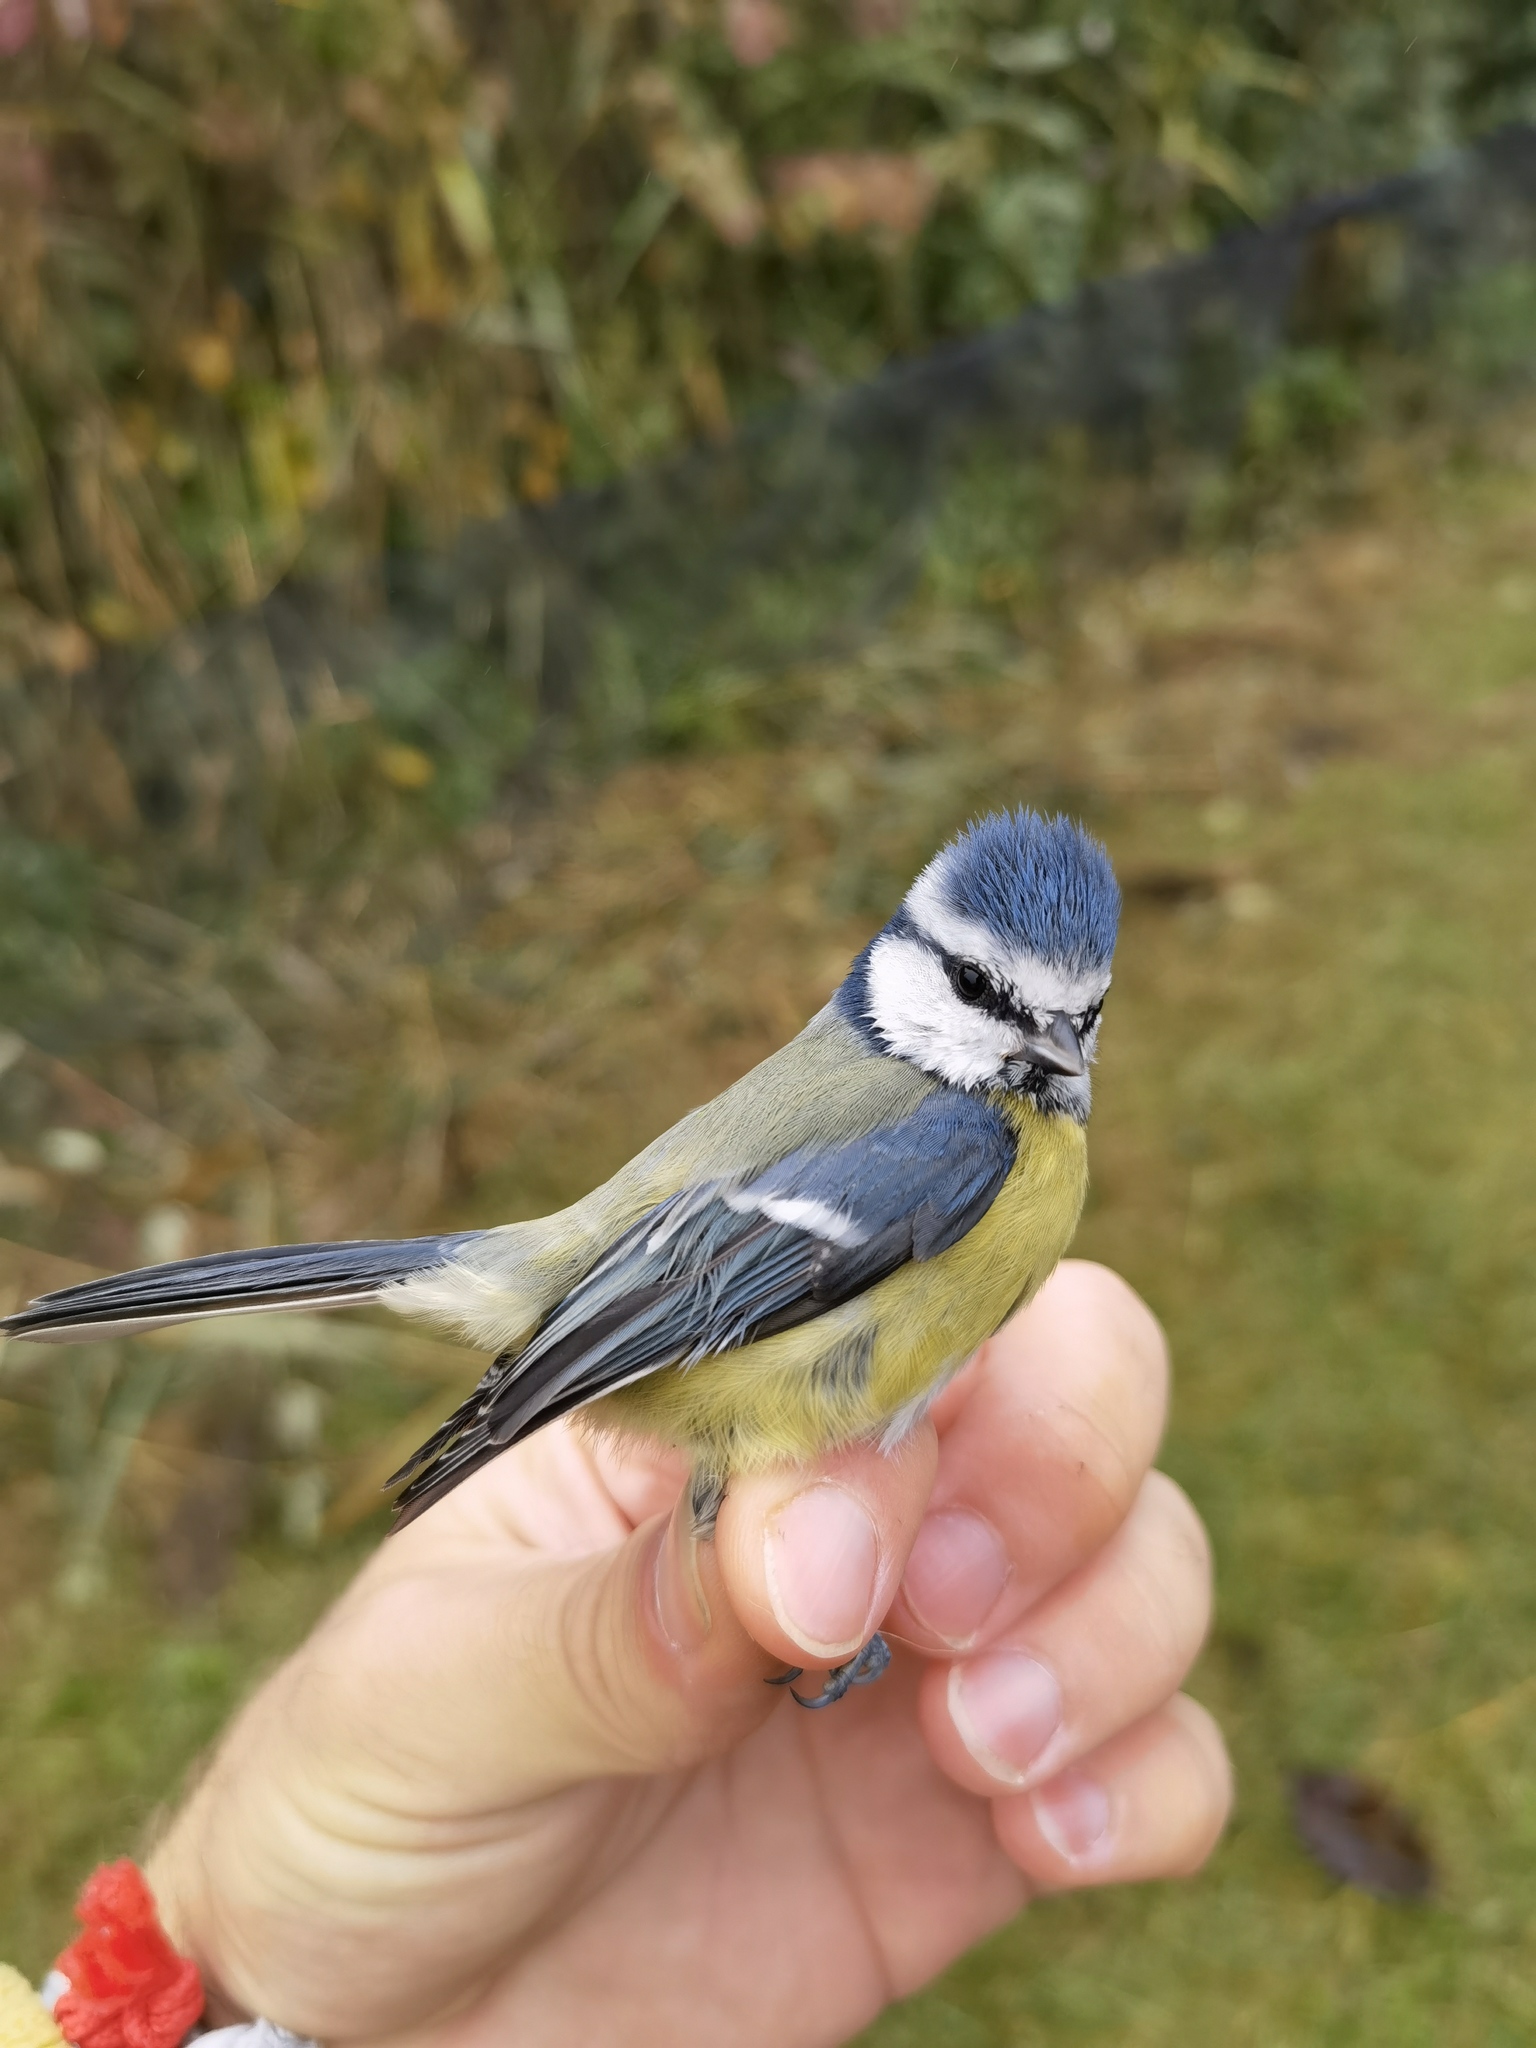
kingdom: Animalia
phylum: Chordata
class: Aves
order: Passeriformes
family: Paridae
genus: Cyanistes
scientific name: Cyanistes caeruleus
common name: Eurasian blue tit
